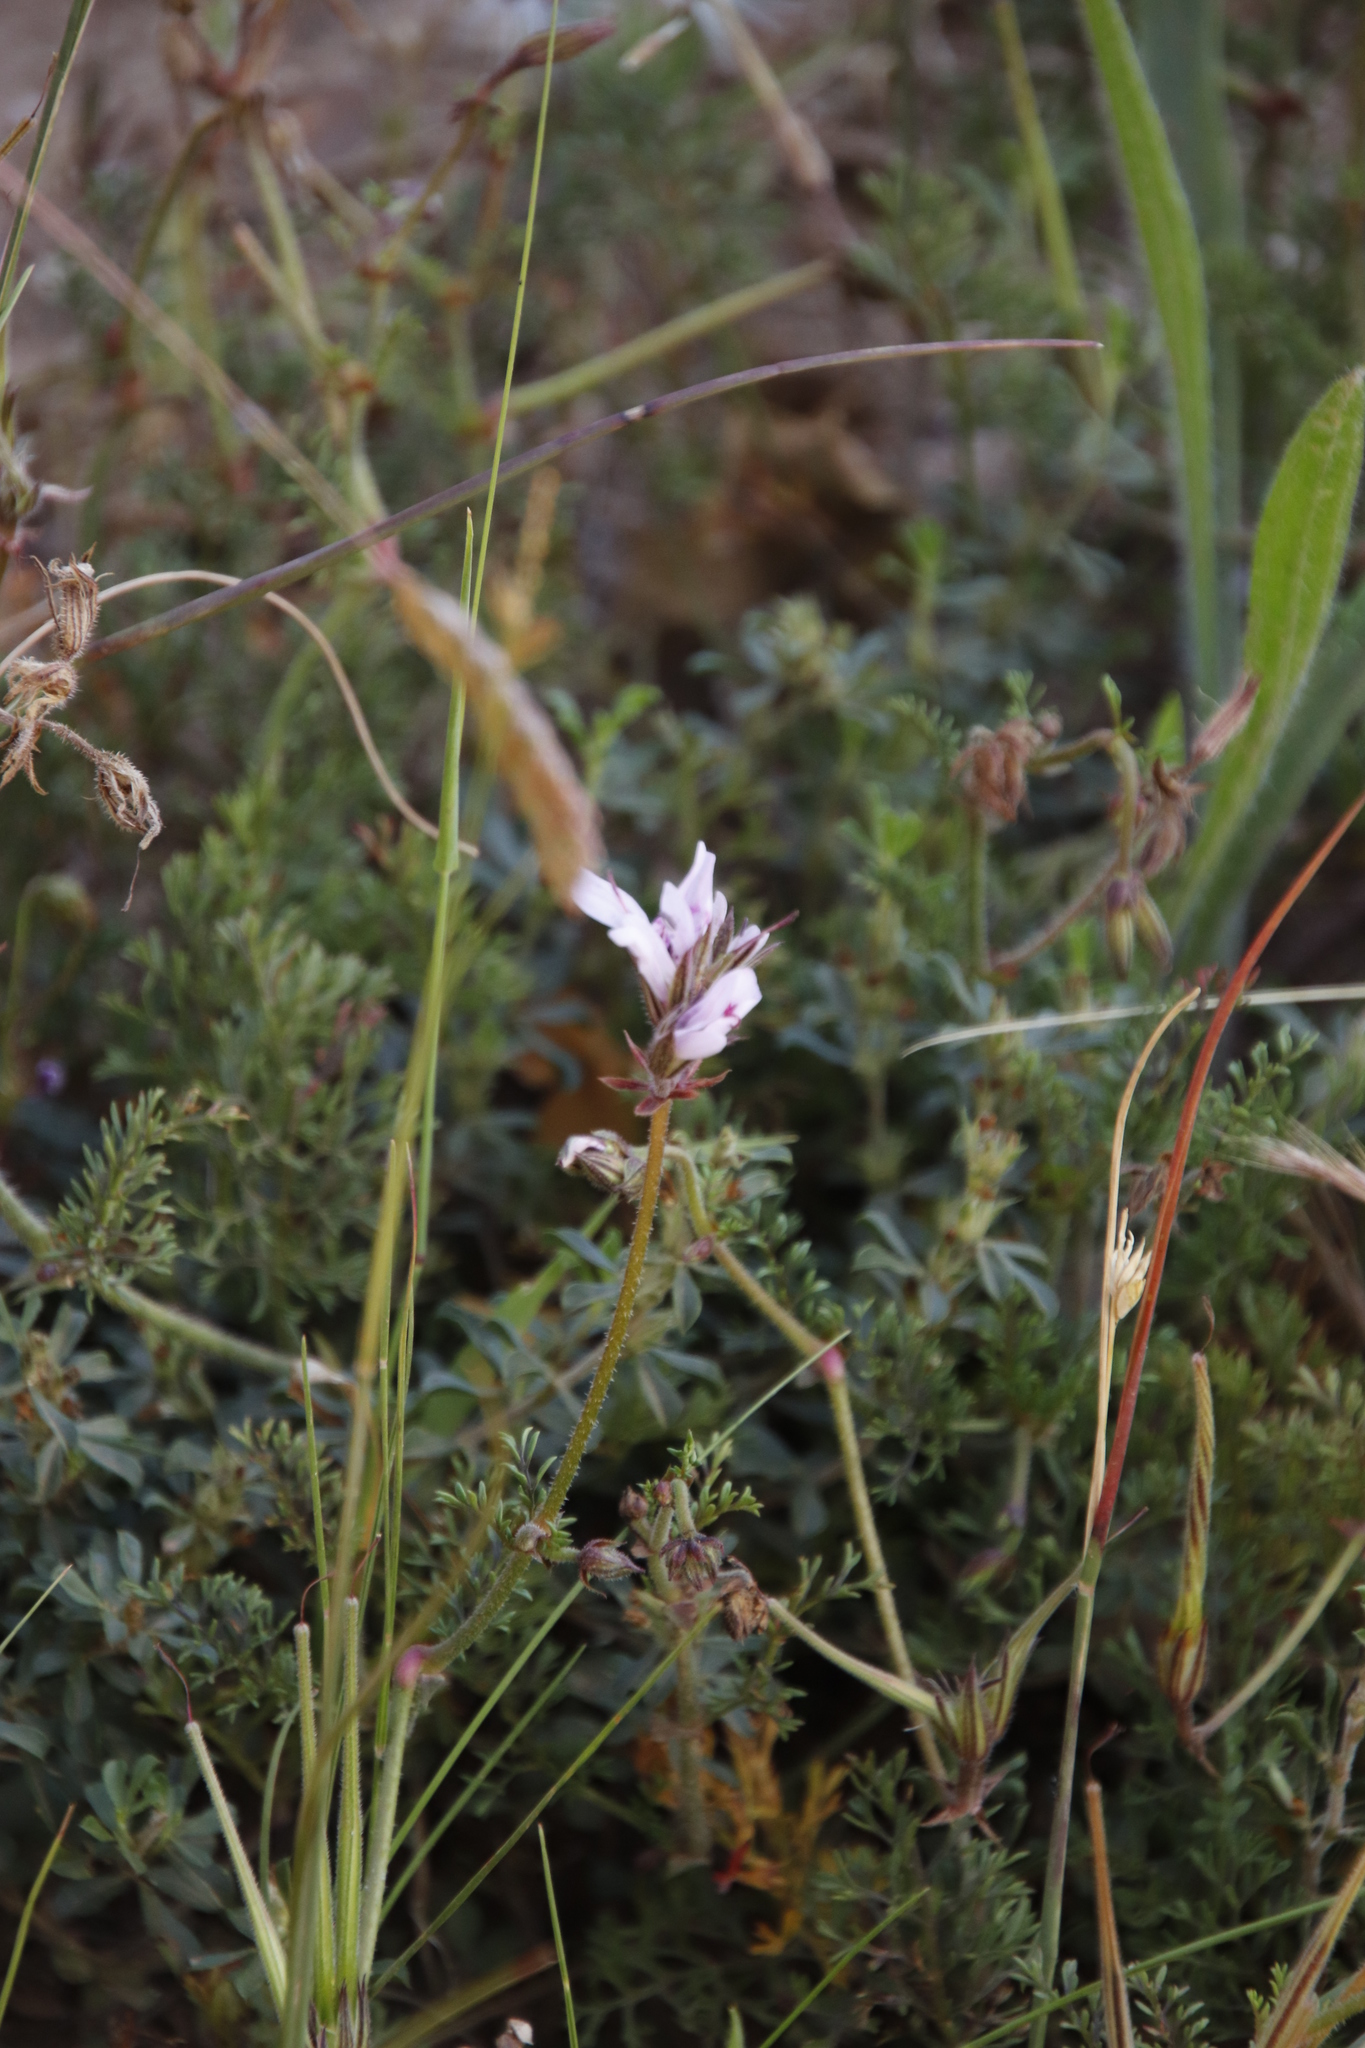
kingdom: Plantae
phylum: Tracheophyta
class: Magnoliopsida
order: Geraniales
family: Geraniaceae
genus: Pelargonium
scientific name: Pelargonium myrrhifolium
